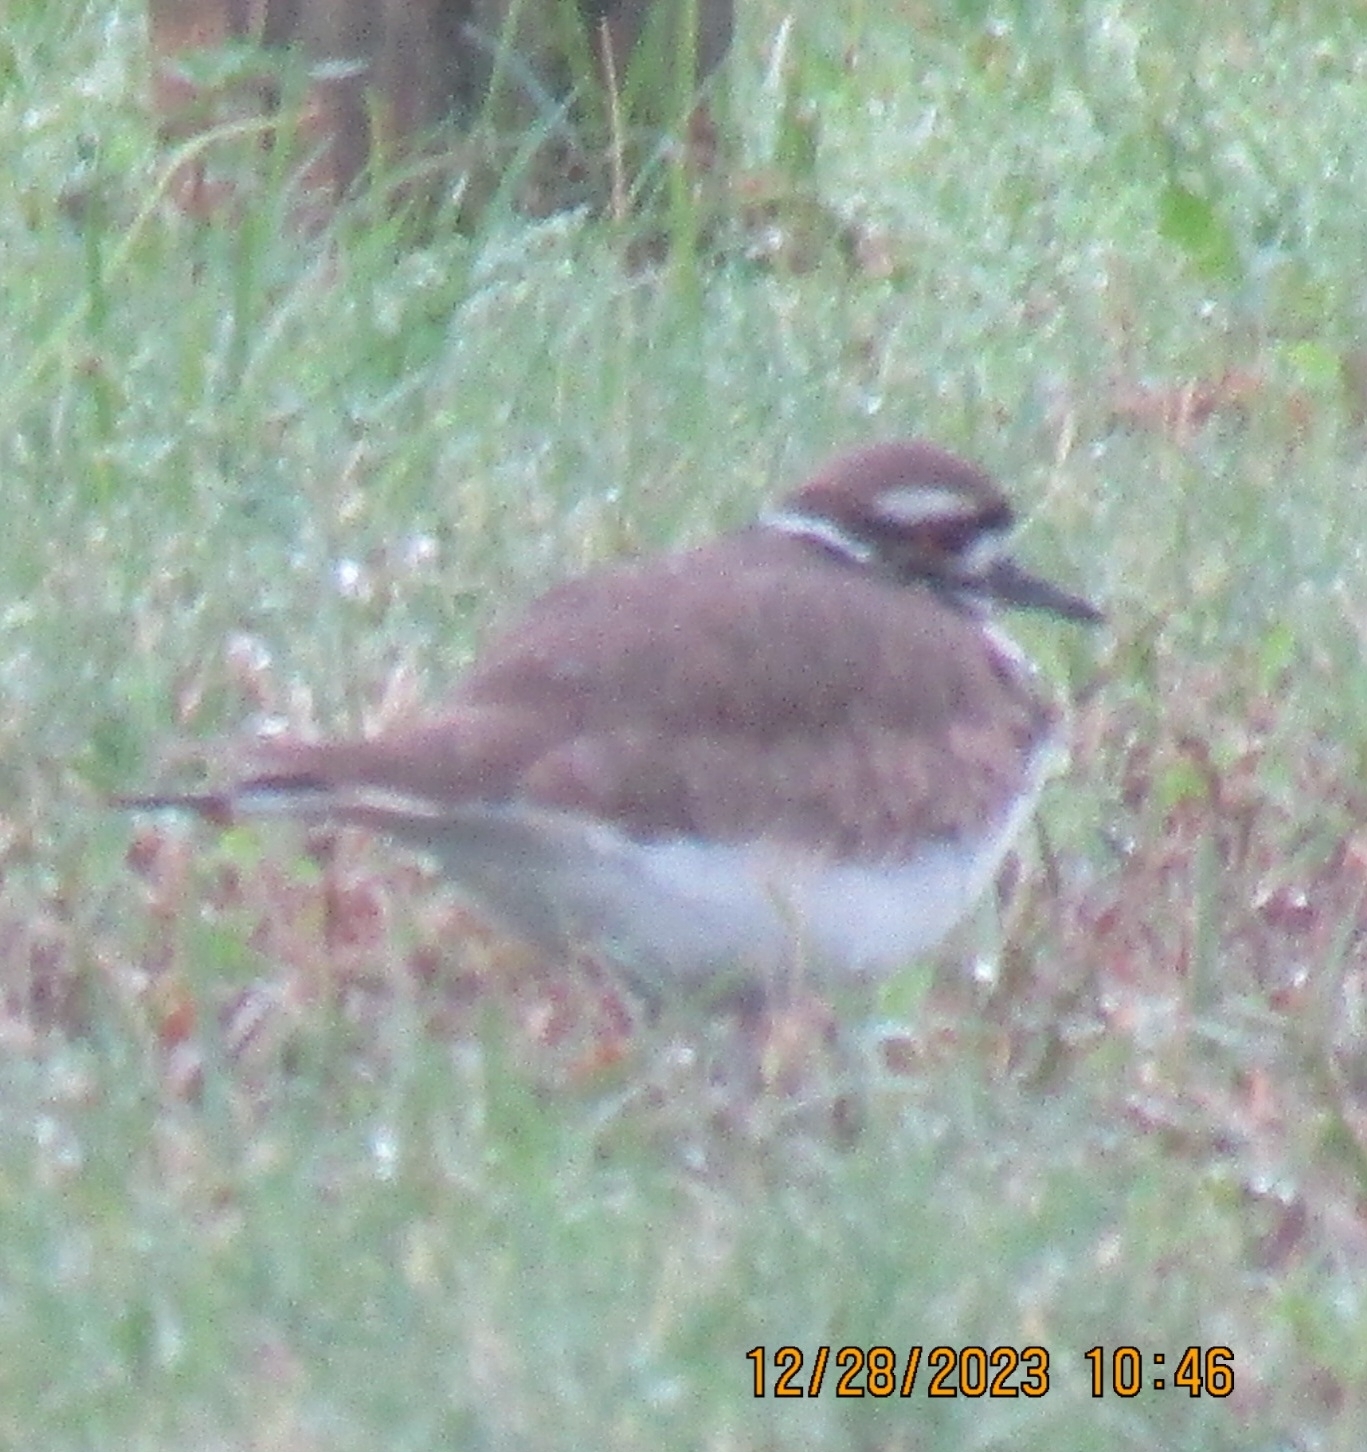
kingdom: Animalia
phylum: Chordata
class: Aves
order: Charadriiformes
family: Charadriidae
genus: Charadrius
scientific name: Charadrius vociferus
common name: Killdeer
